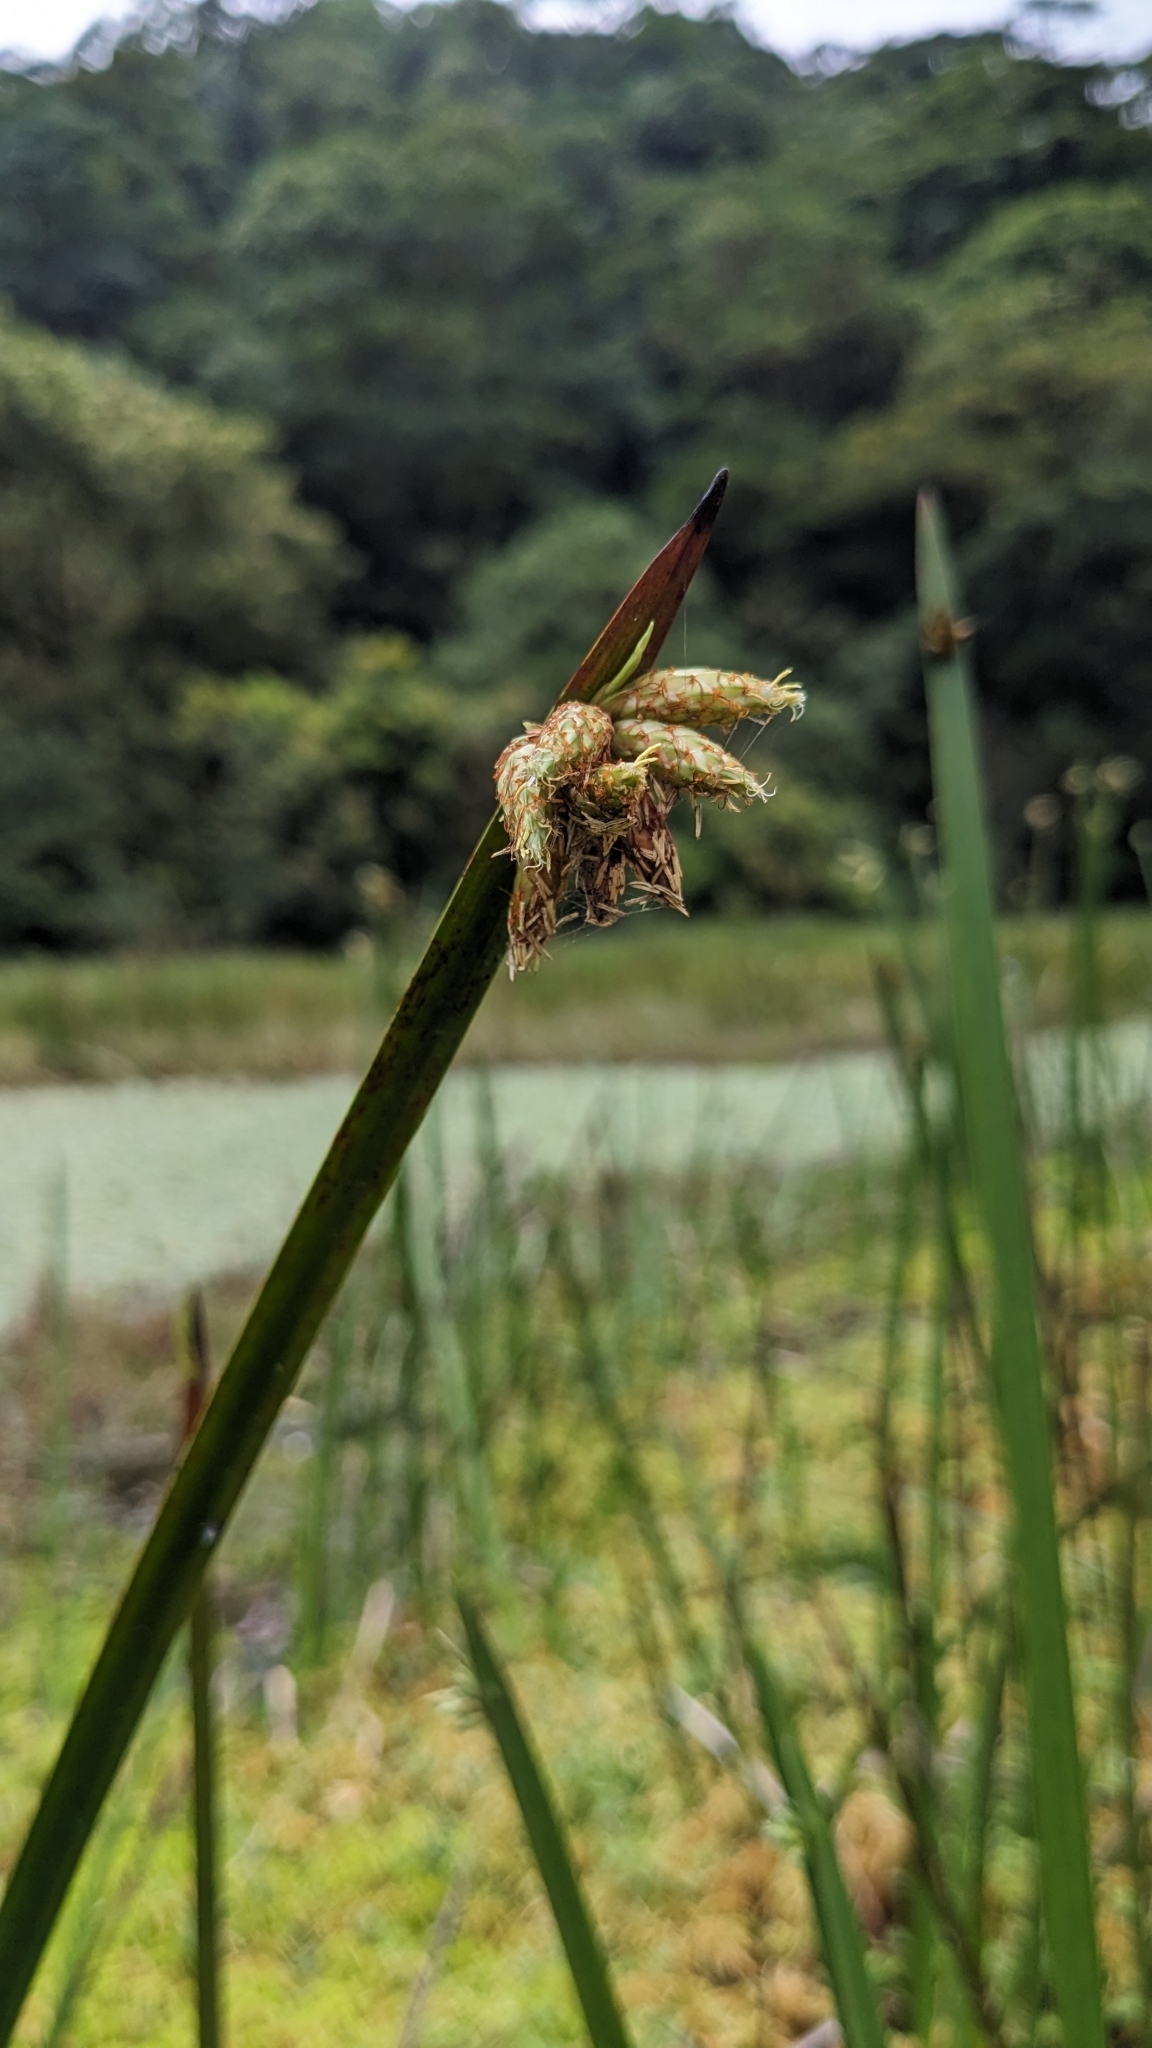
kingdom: Plantae
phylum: Tracheophyta
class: Liliopsida
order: Poales
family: Cyperaceae
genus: Schoenoplectiella
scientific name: Schoenoplectiella multiseta
